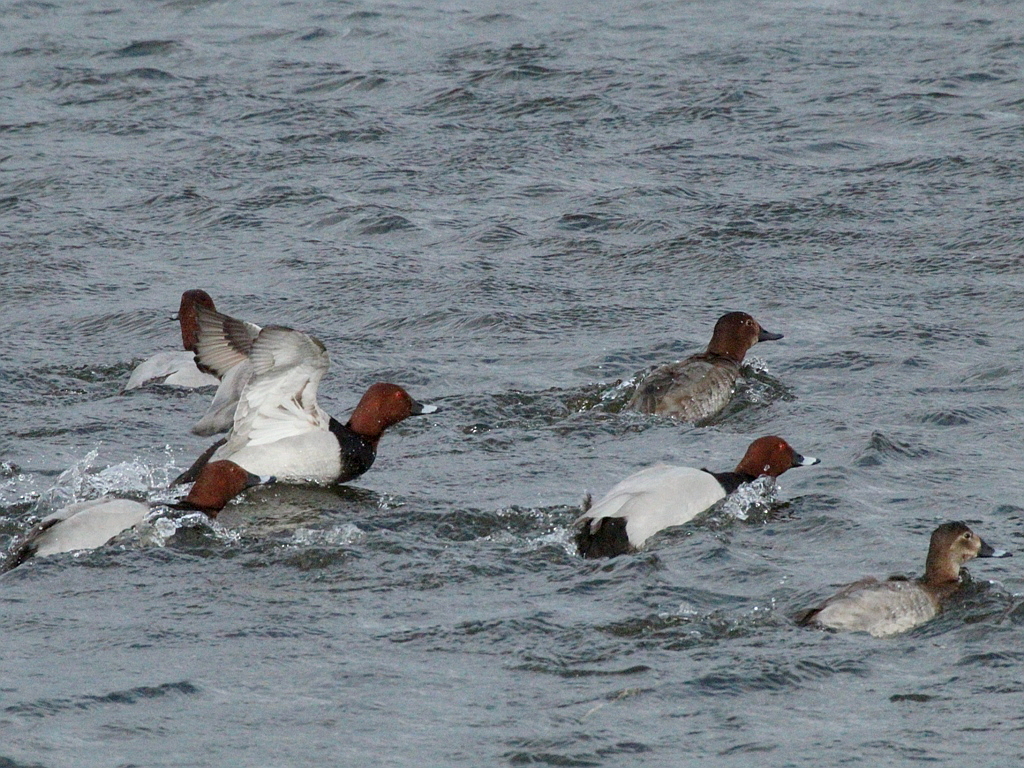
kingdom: Animalia
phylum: Chordata
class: Aves
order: Anseriformes
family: Anatidae
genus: Aythya
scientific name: Aythya ferina
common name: Common pochard
